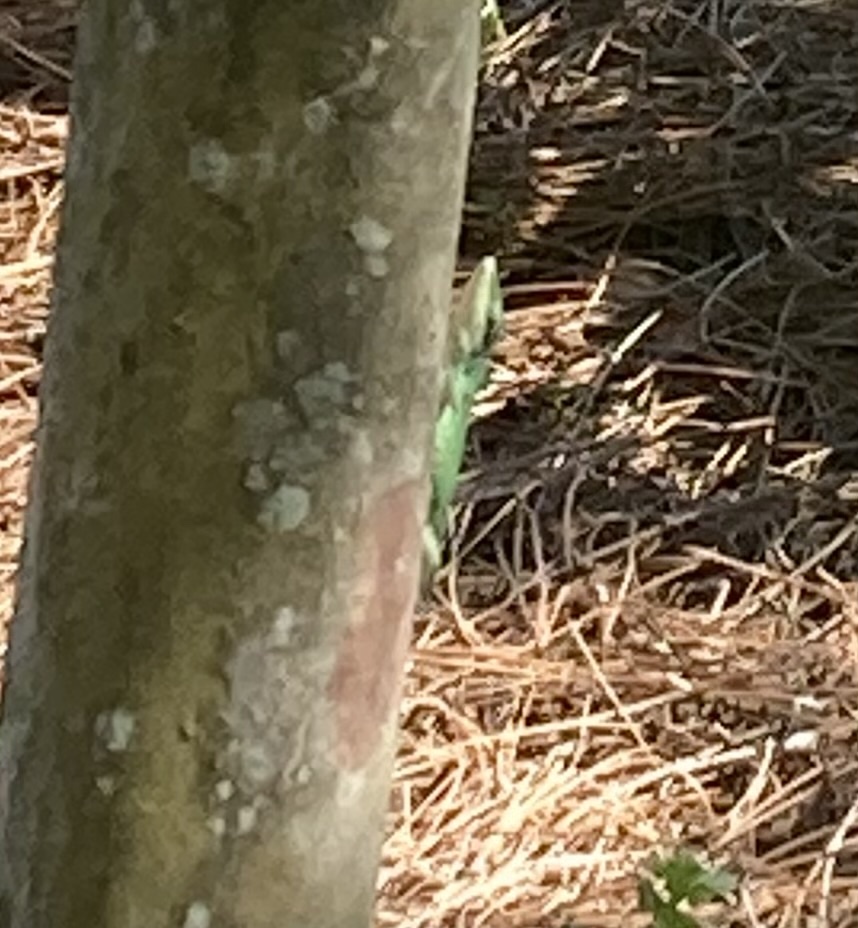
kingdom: Animalia
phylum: Chordata
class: Squamata
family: Dactyloidae
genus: Anolis
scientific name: Anolis carolinensis
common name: Green anole
